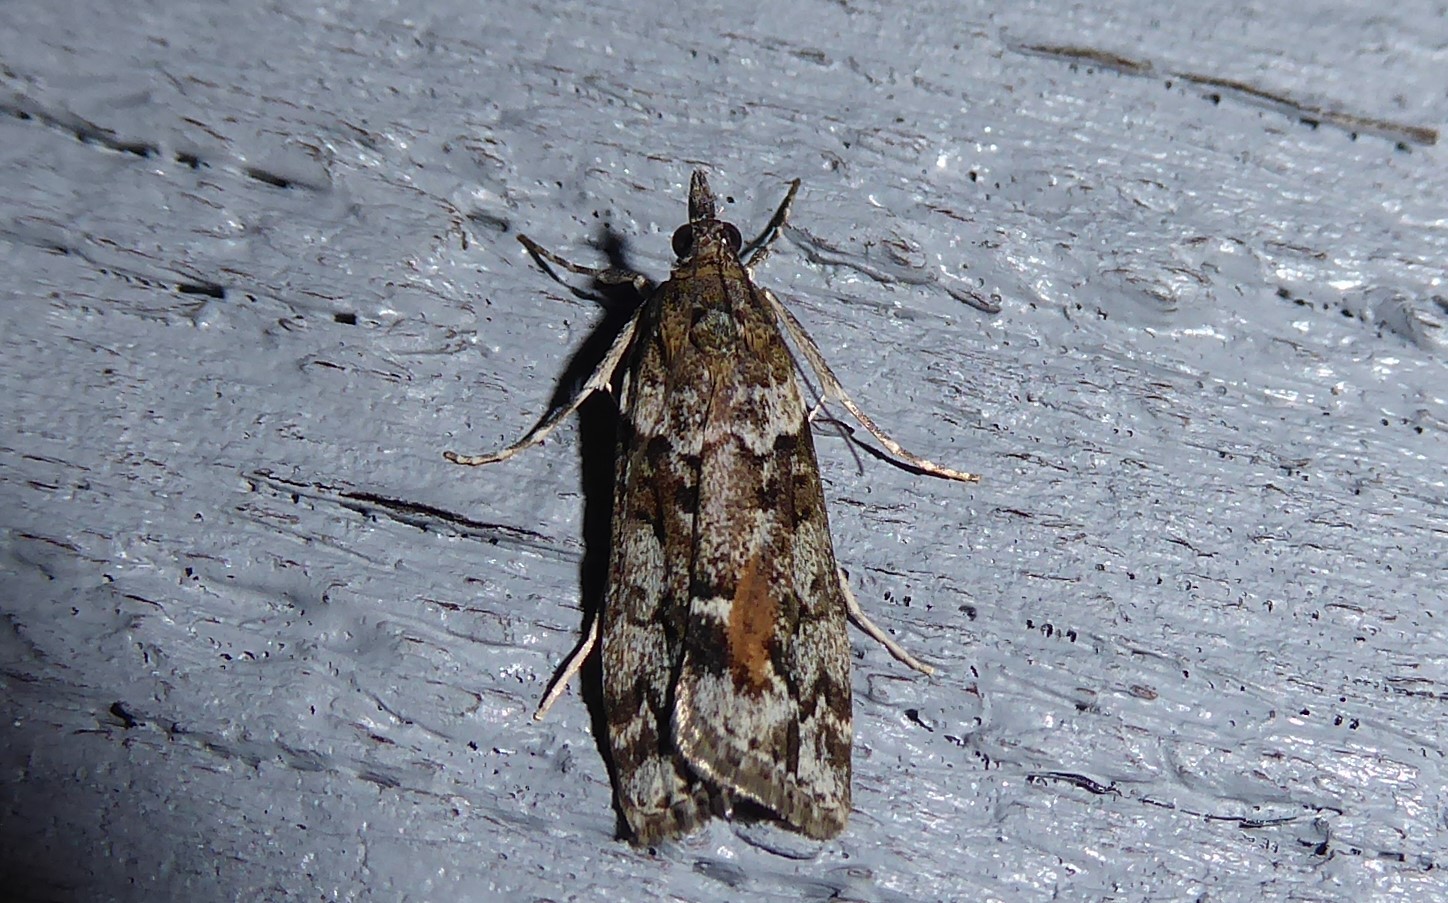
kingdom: Animalia
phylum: Arthropoda
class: Insecta
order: Lepidoptera
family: Crambidae
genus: Eudonia
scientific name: Eudonia submarginalis
